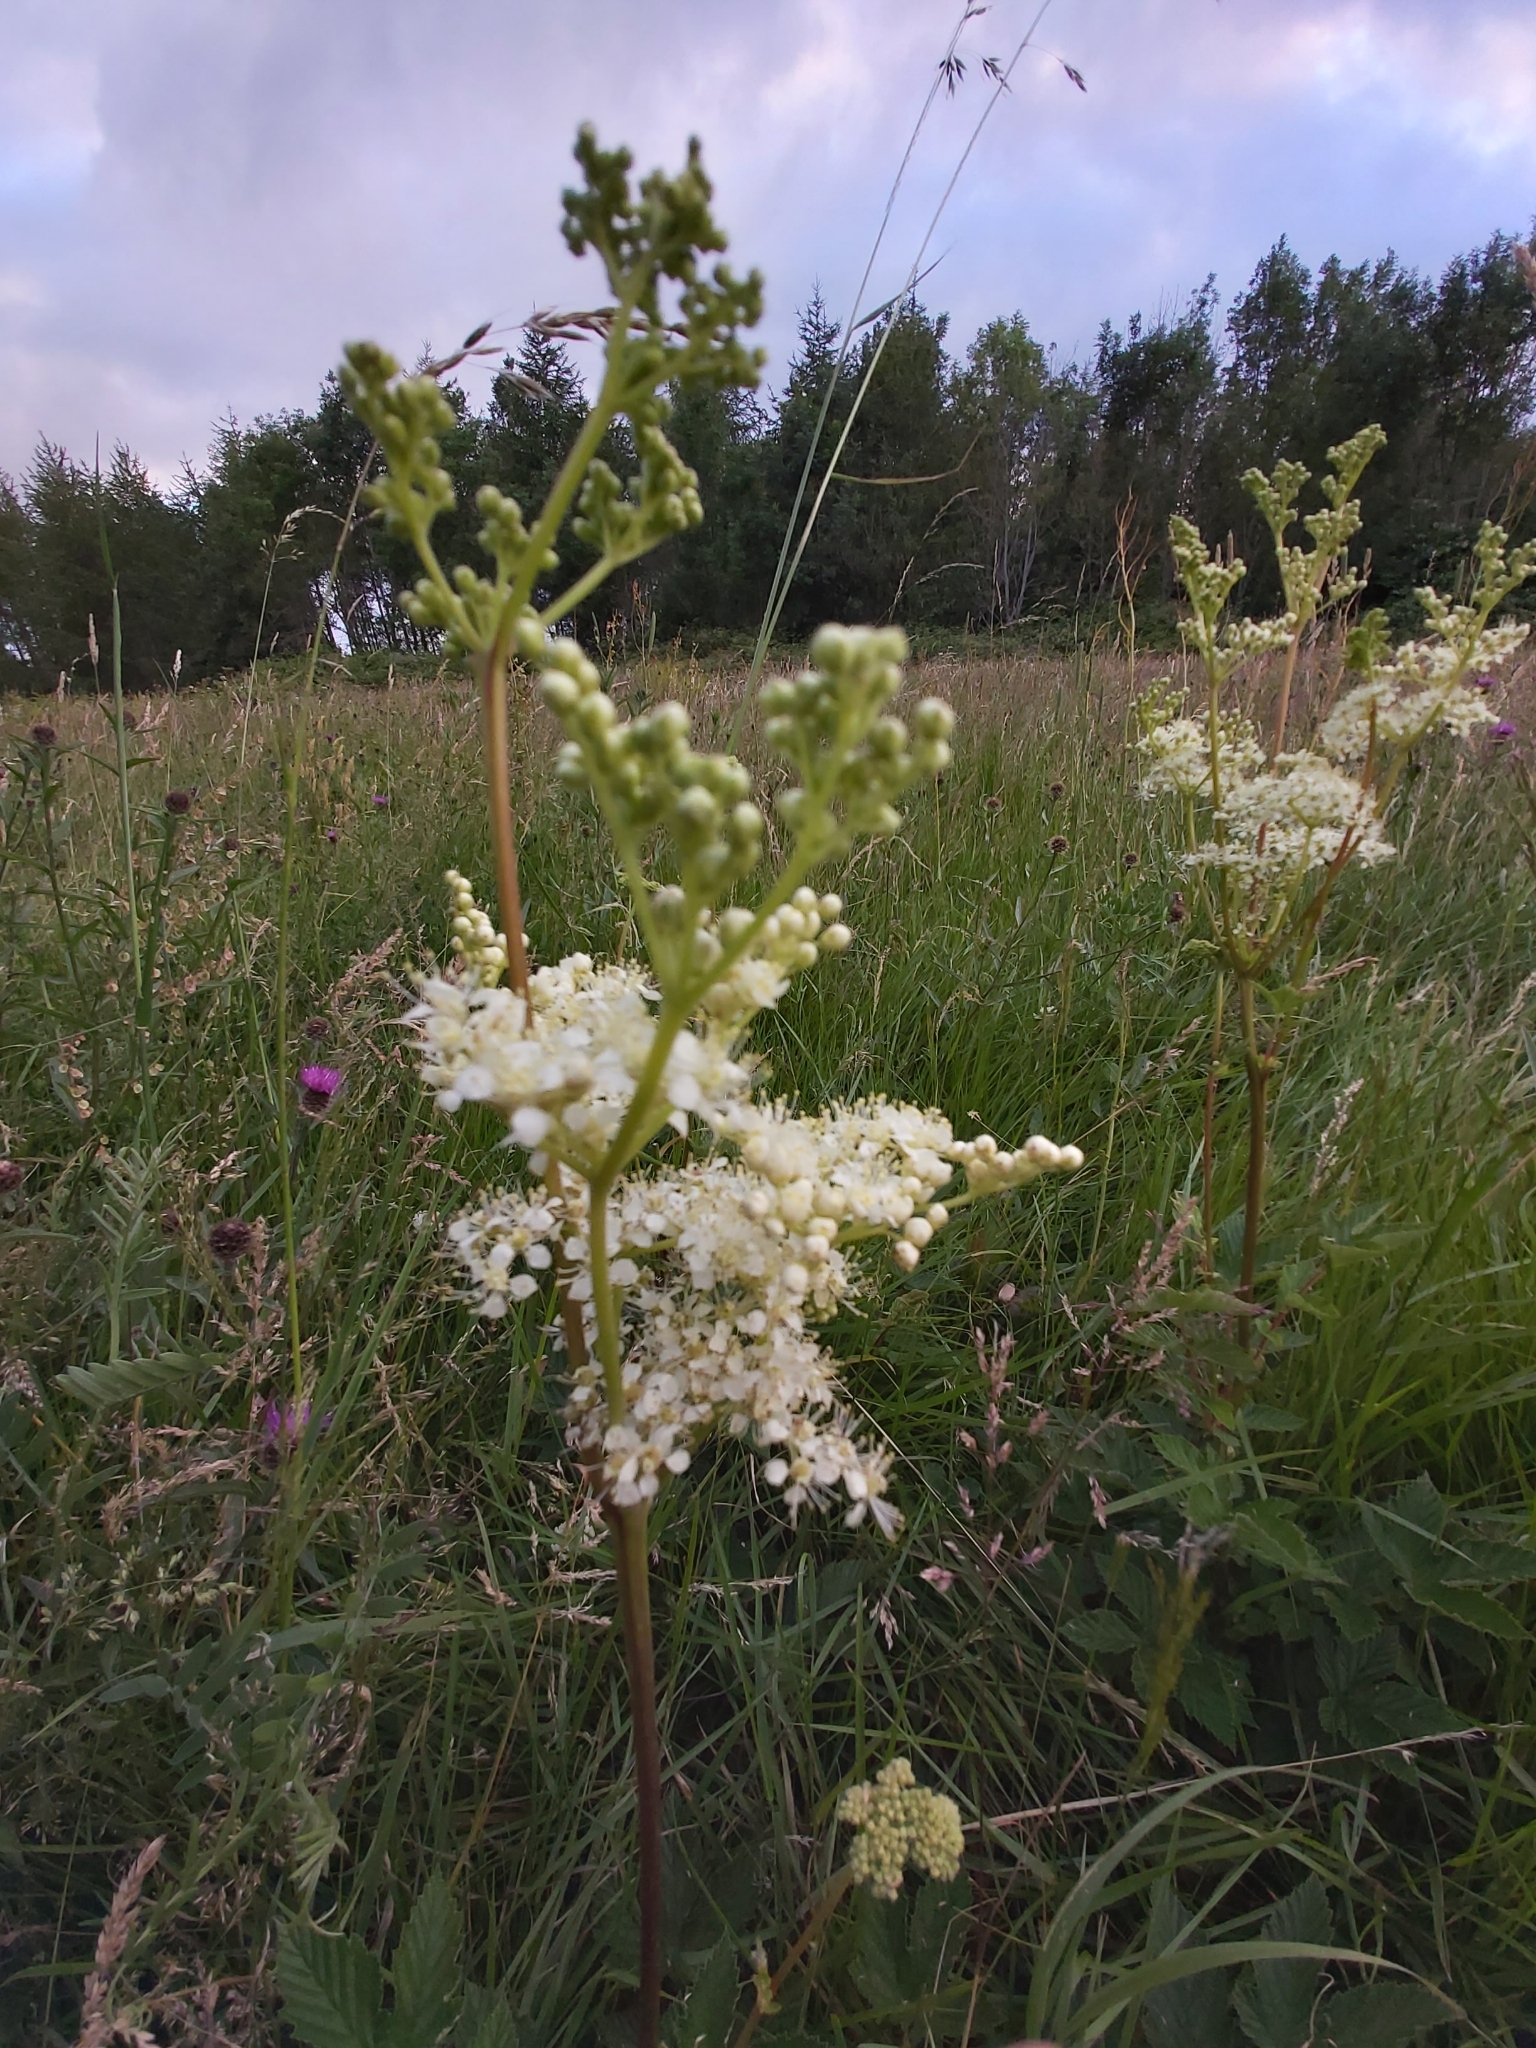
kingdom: Plantae
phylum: Tracheophyta
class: Magnoliopsida
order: Rosales
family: Rosaceae
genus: Filipendula
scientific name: Filipendula ulmaria
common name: Meadowsweet
